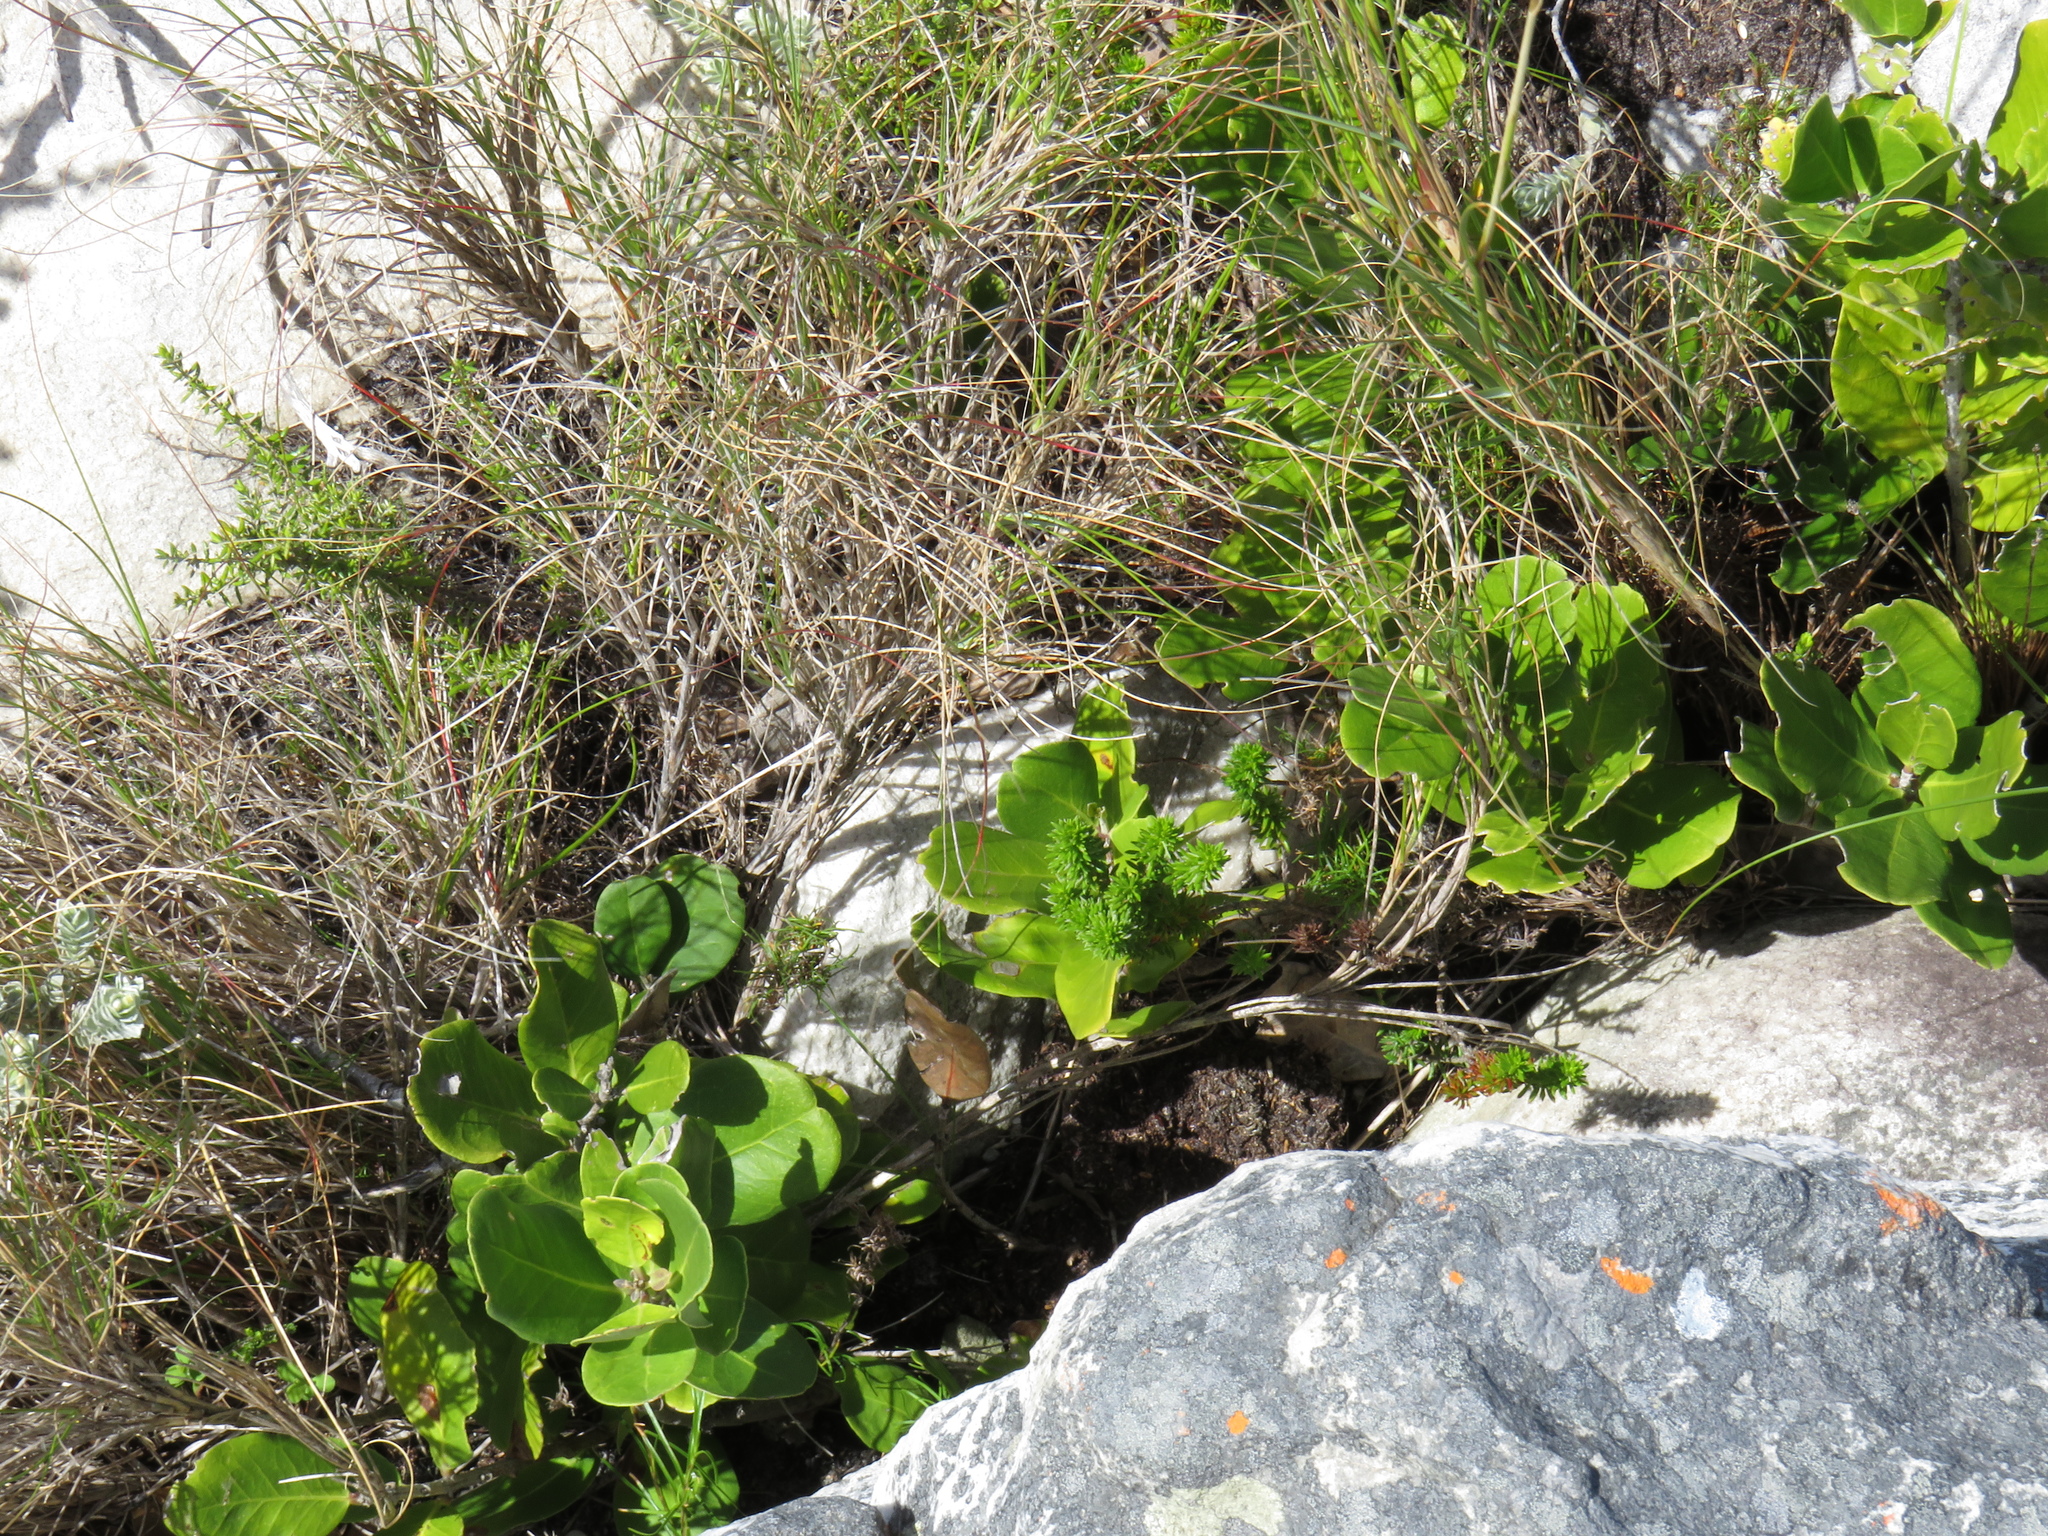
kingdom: Plantae
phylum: Tracheophyta
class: Magnoliopsida
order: Lamiales
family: Oleaceae
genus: Olea
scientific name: Olea capensis
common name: Black ironwood
